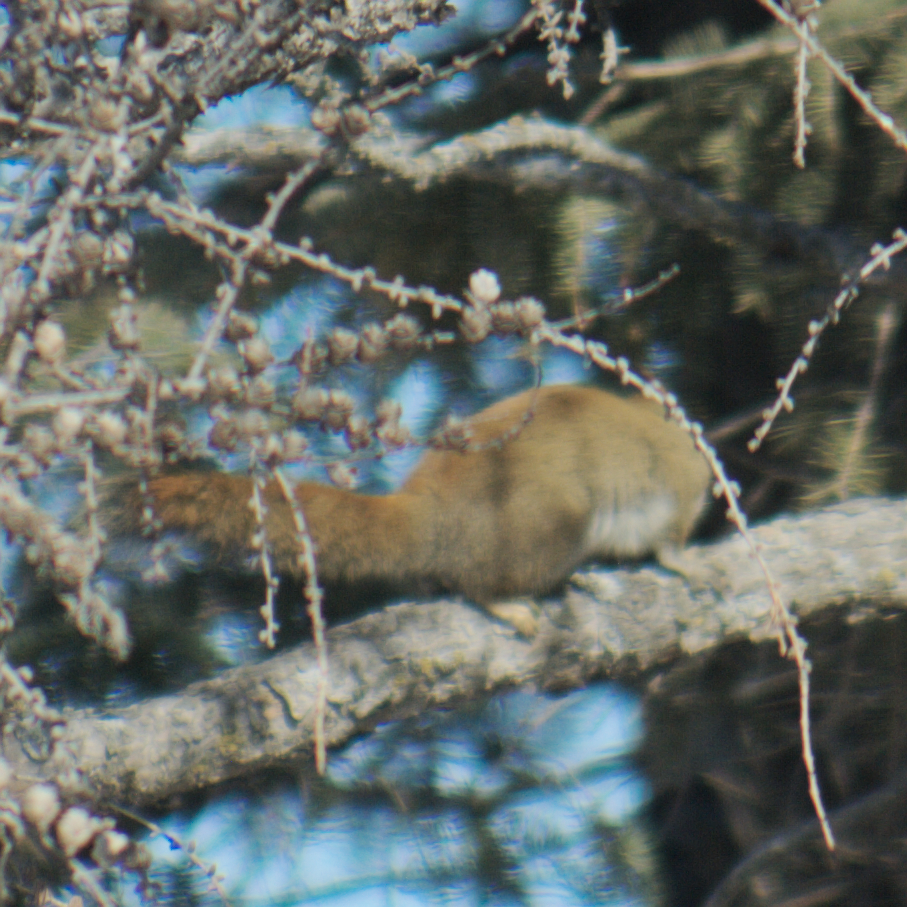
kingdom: Animalia
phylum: Chordata
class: Mammalia
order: Rodentia
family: Sciuridae
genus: Tamiasciurus
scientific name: Tamiasciurus hudsonicus
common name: Red squirrel
